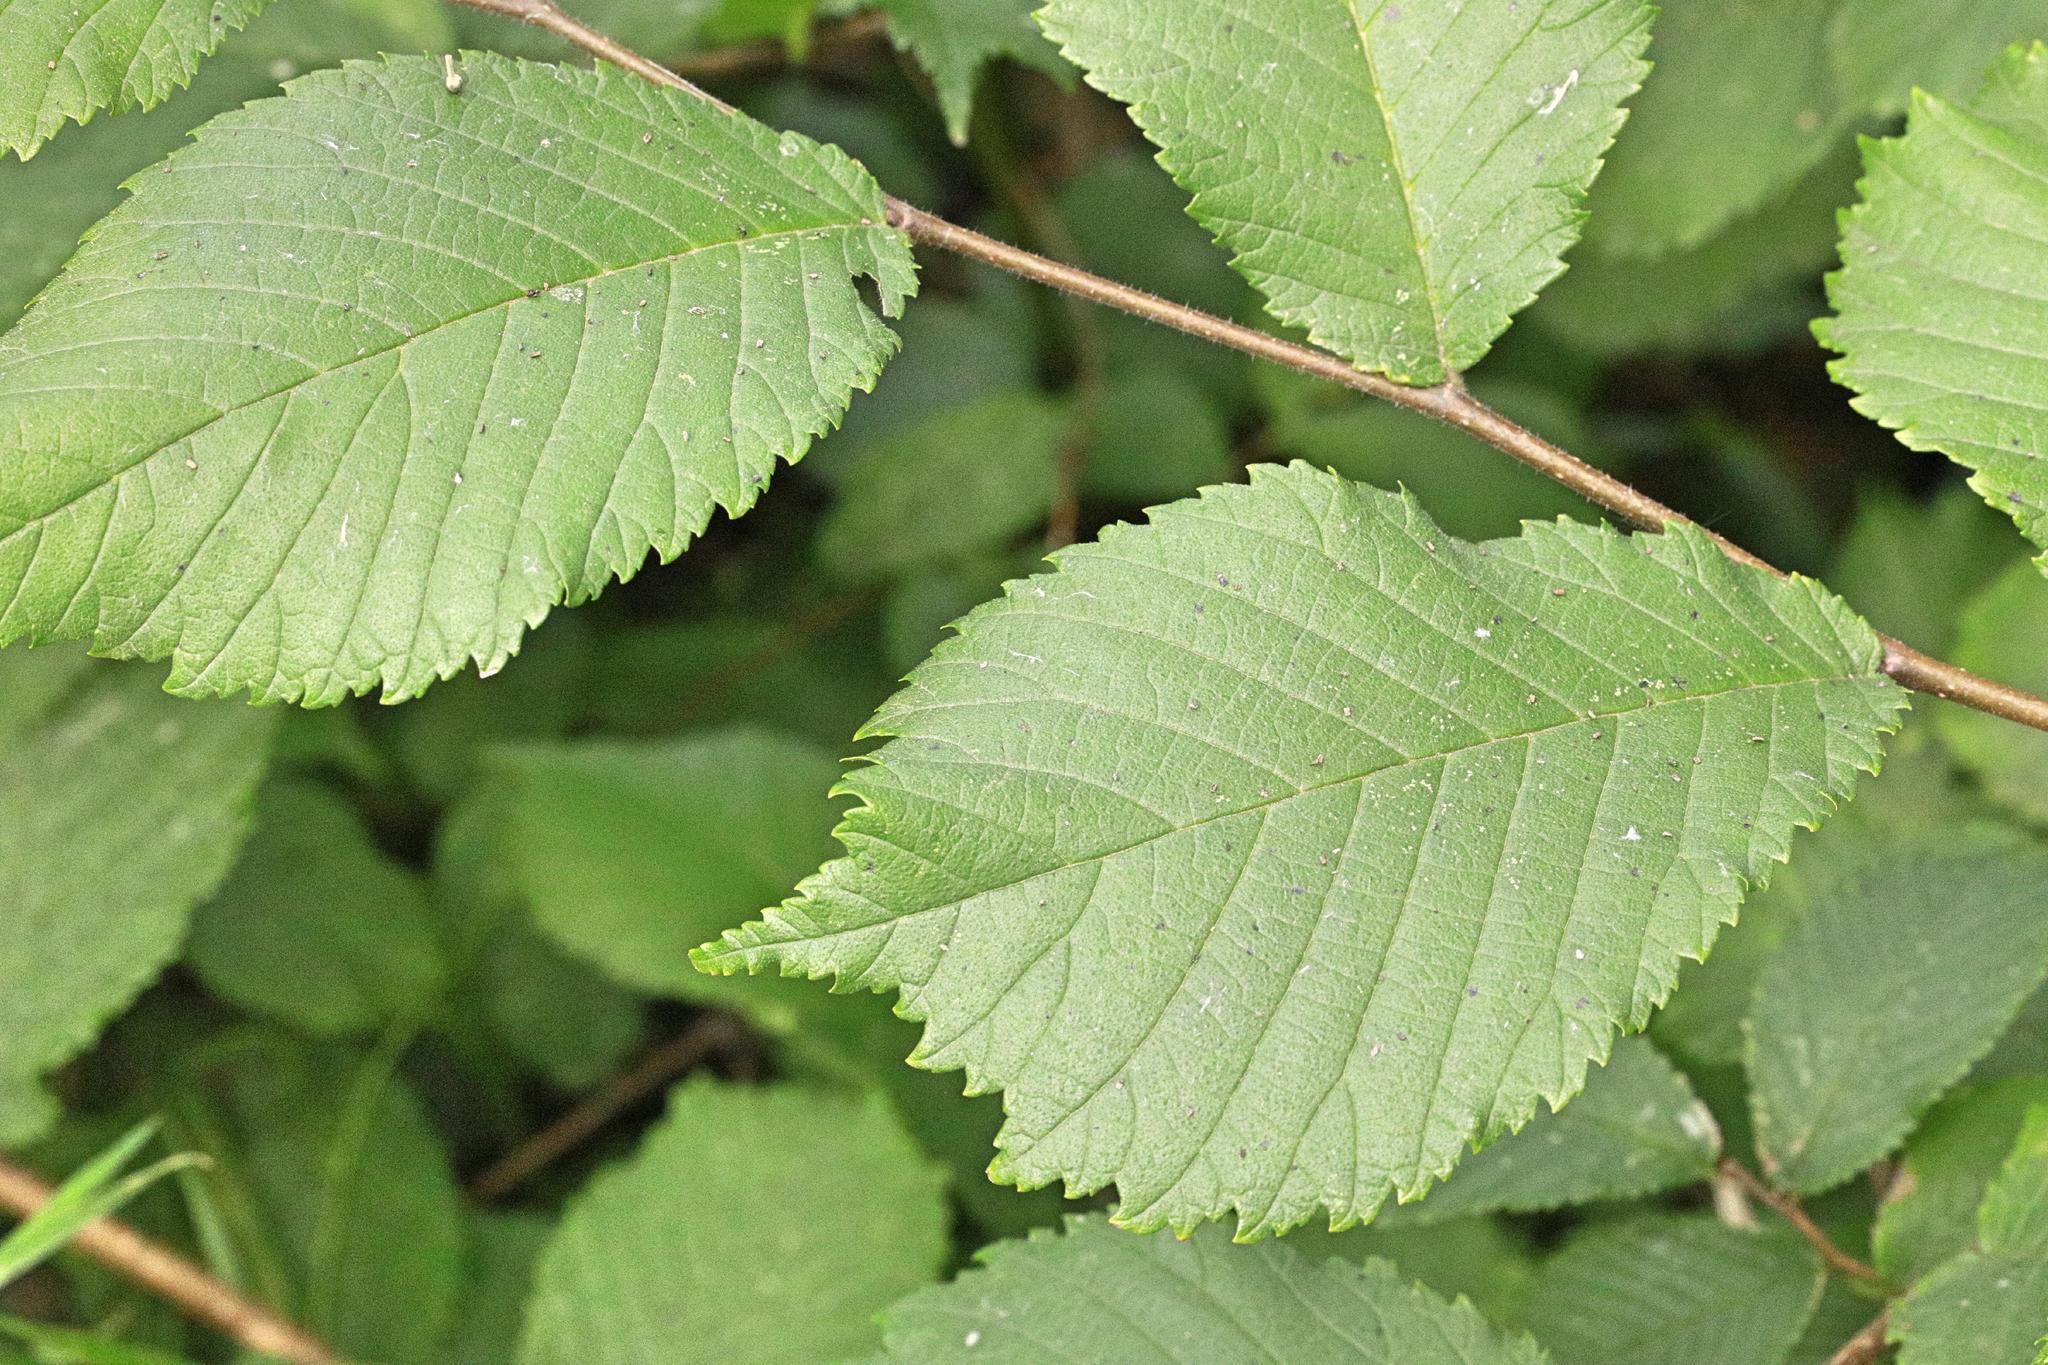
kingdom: Plantae
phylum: Tracheophyta
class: Magnoliopsida
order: Rosales
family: Ulmaceae
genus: Ulmus
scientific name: Ulmus glabra
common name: Wych elm
